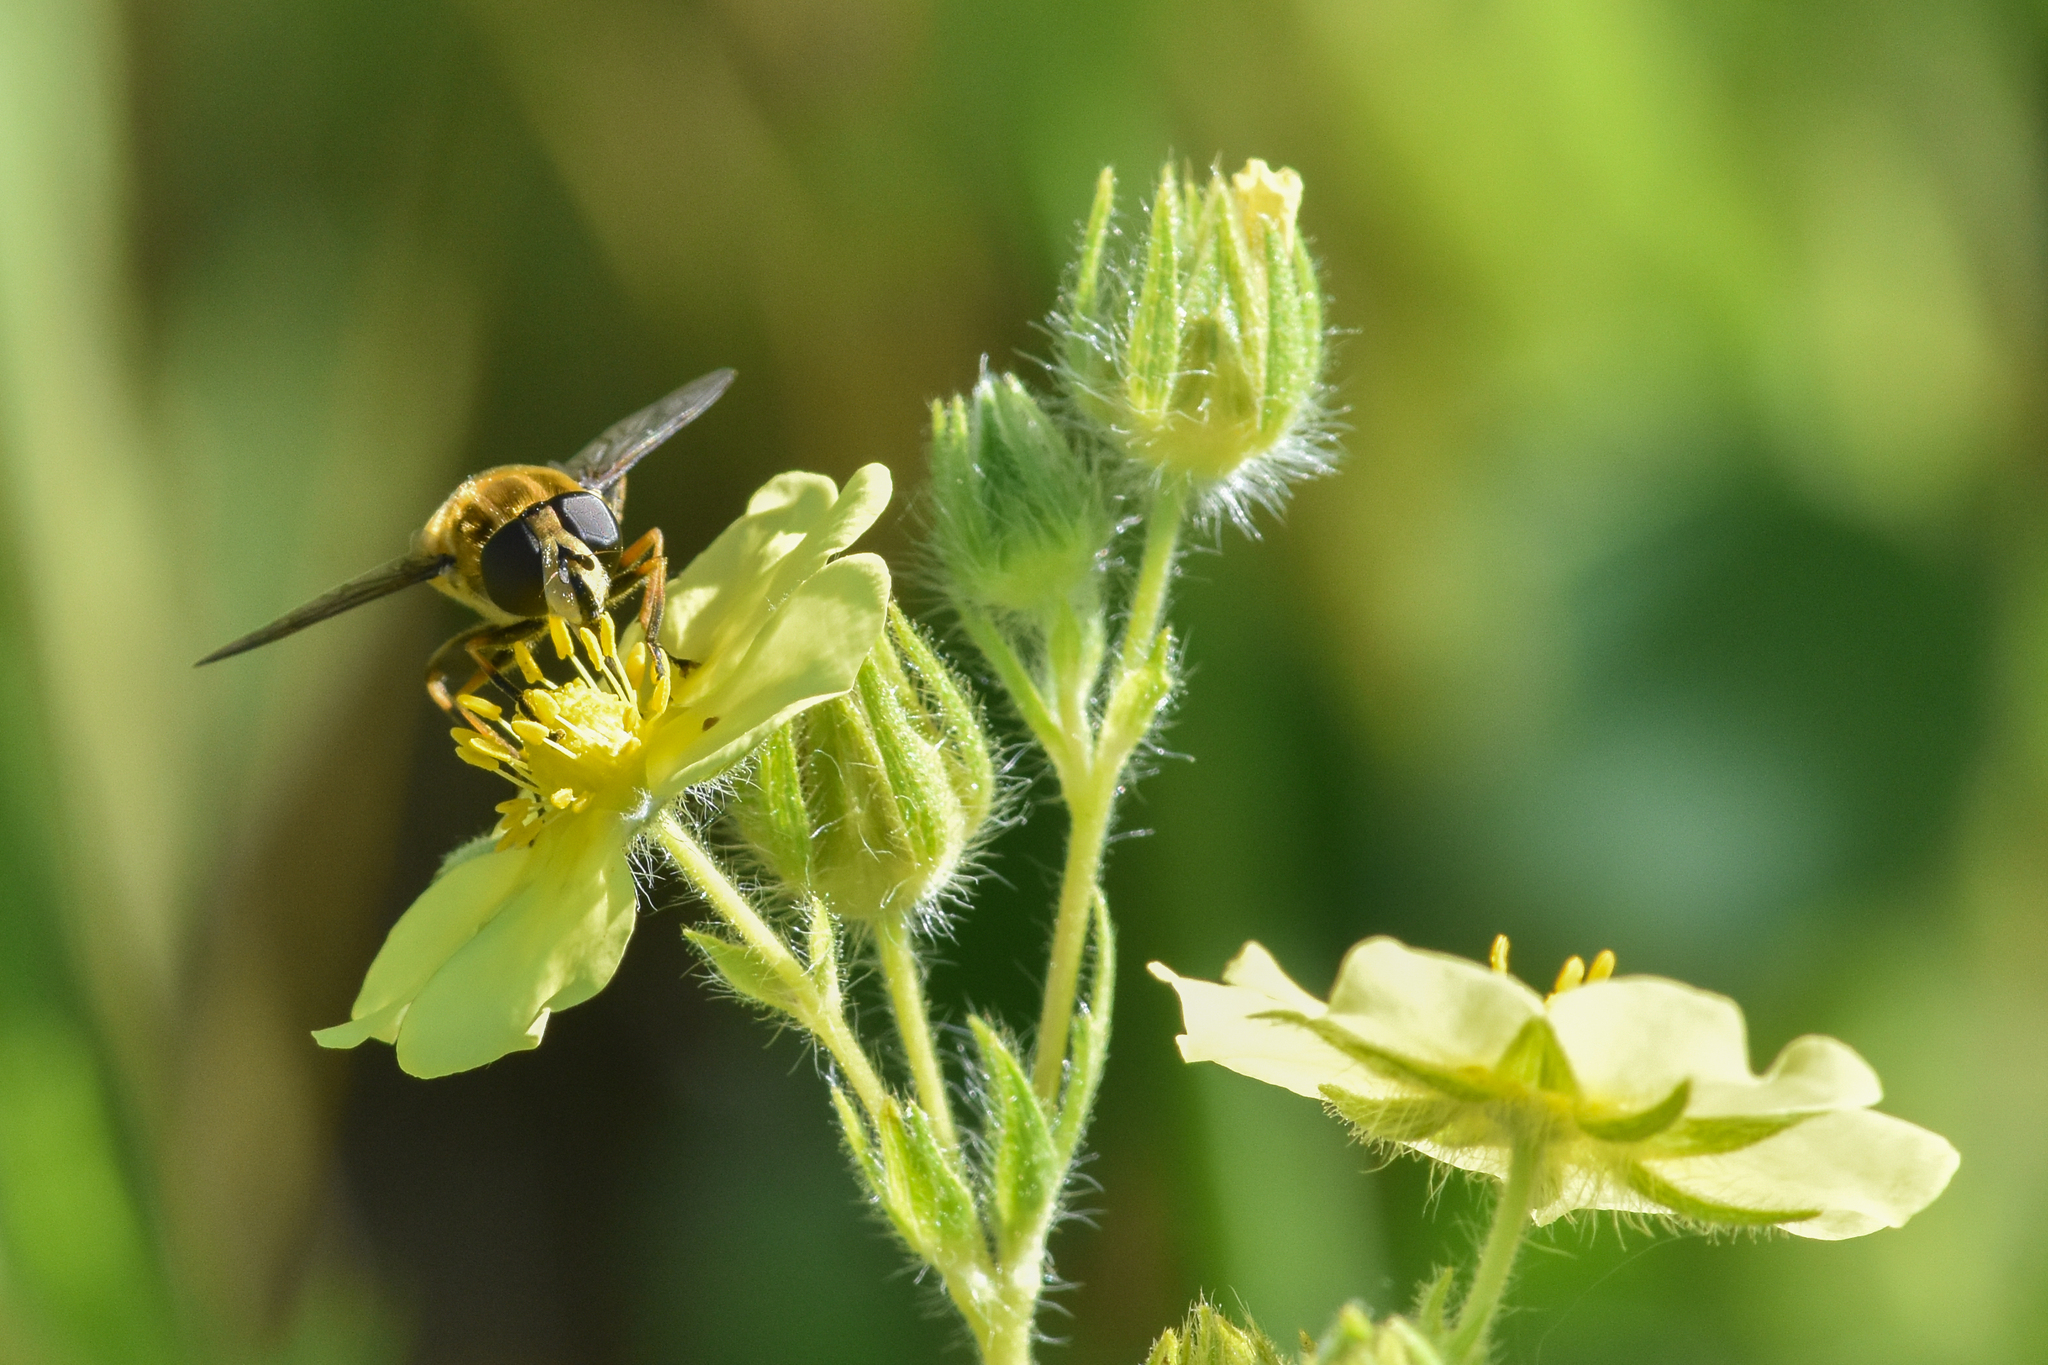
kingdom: Animalia
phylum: Arthropoda
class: Insecta
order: Diptera
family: Syrphidae
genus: Helophilus
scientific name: Helophilus
